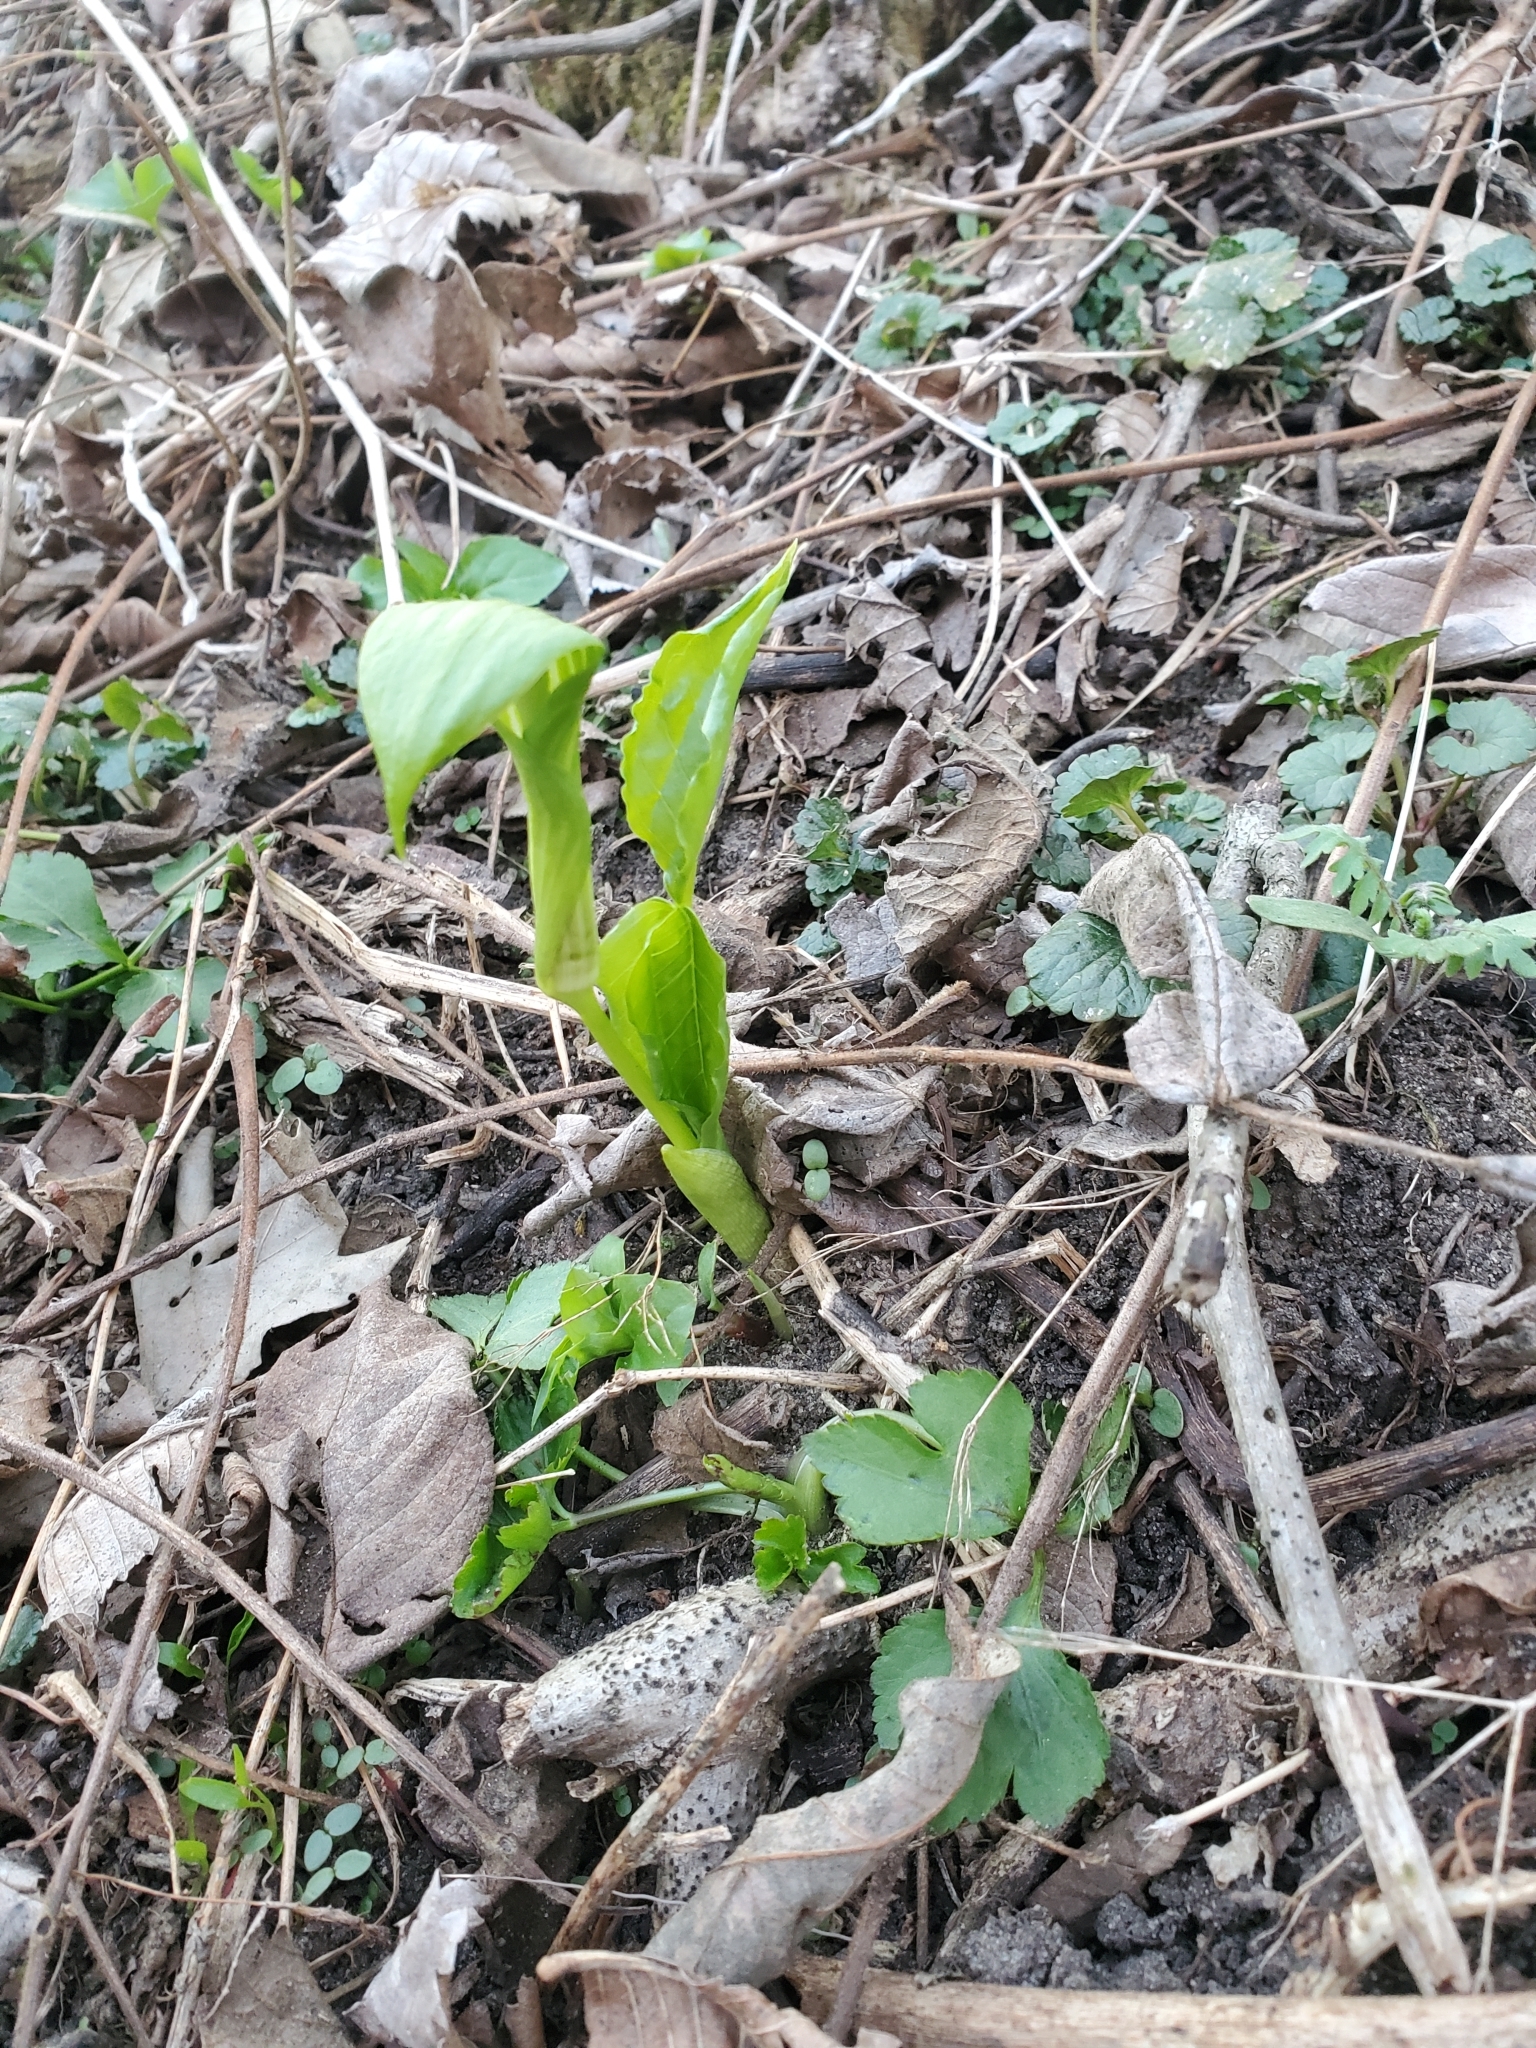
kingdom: Plantae
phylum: Tracheophyta
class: Liliopsida
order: Alismatales
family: Araceae
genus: Arisaema
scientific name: Arisaema triphyllum
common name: Jack-in-the-pulpit
